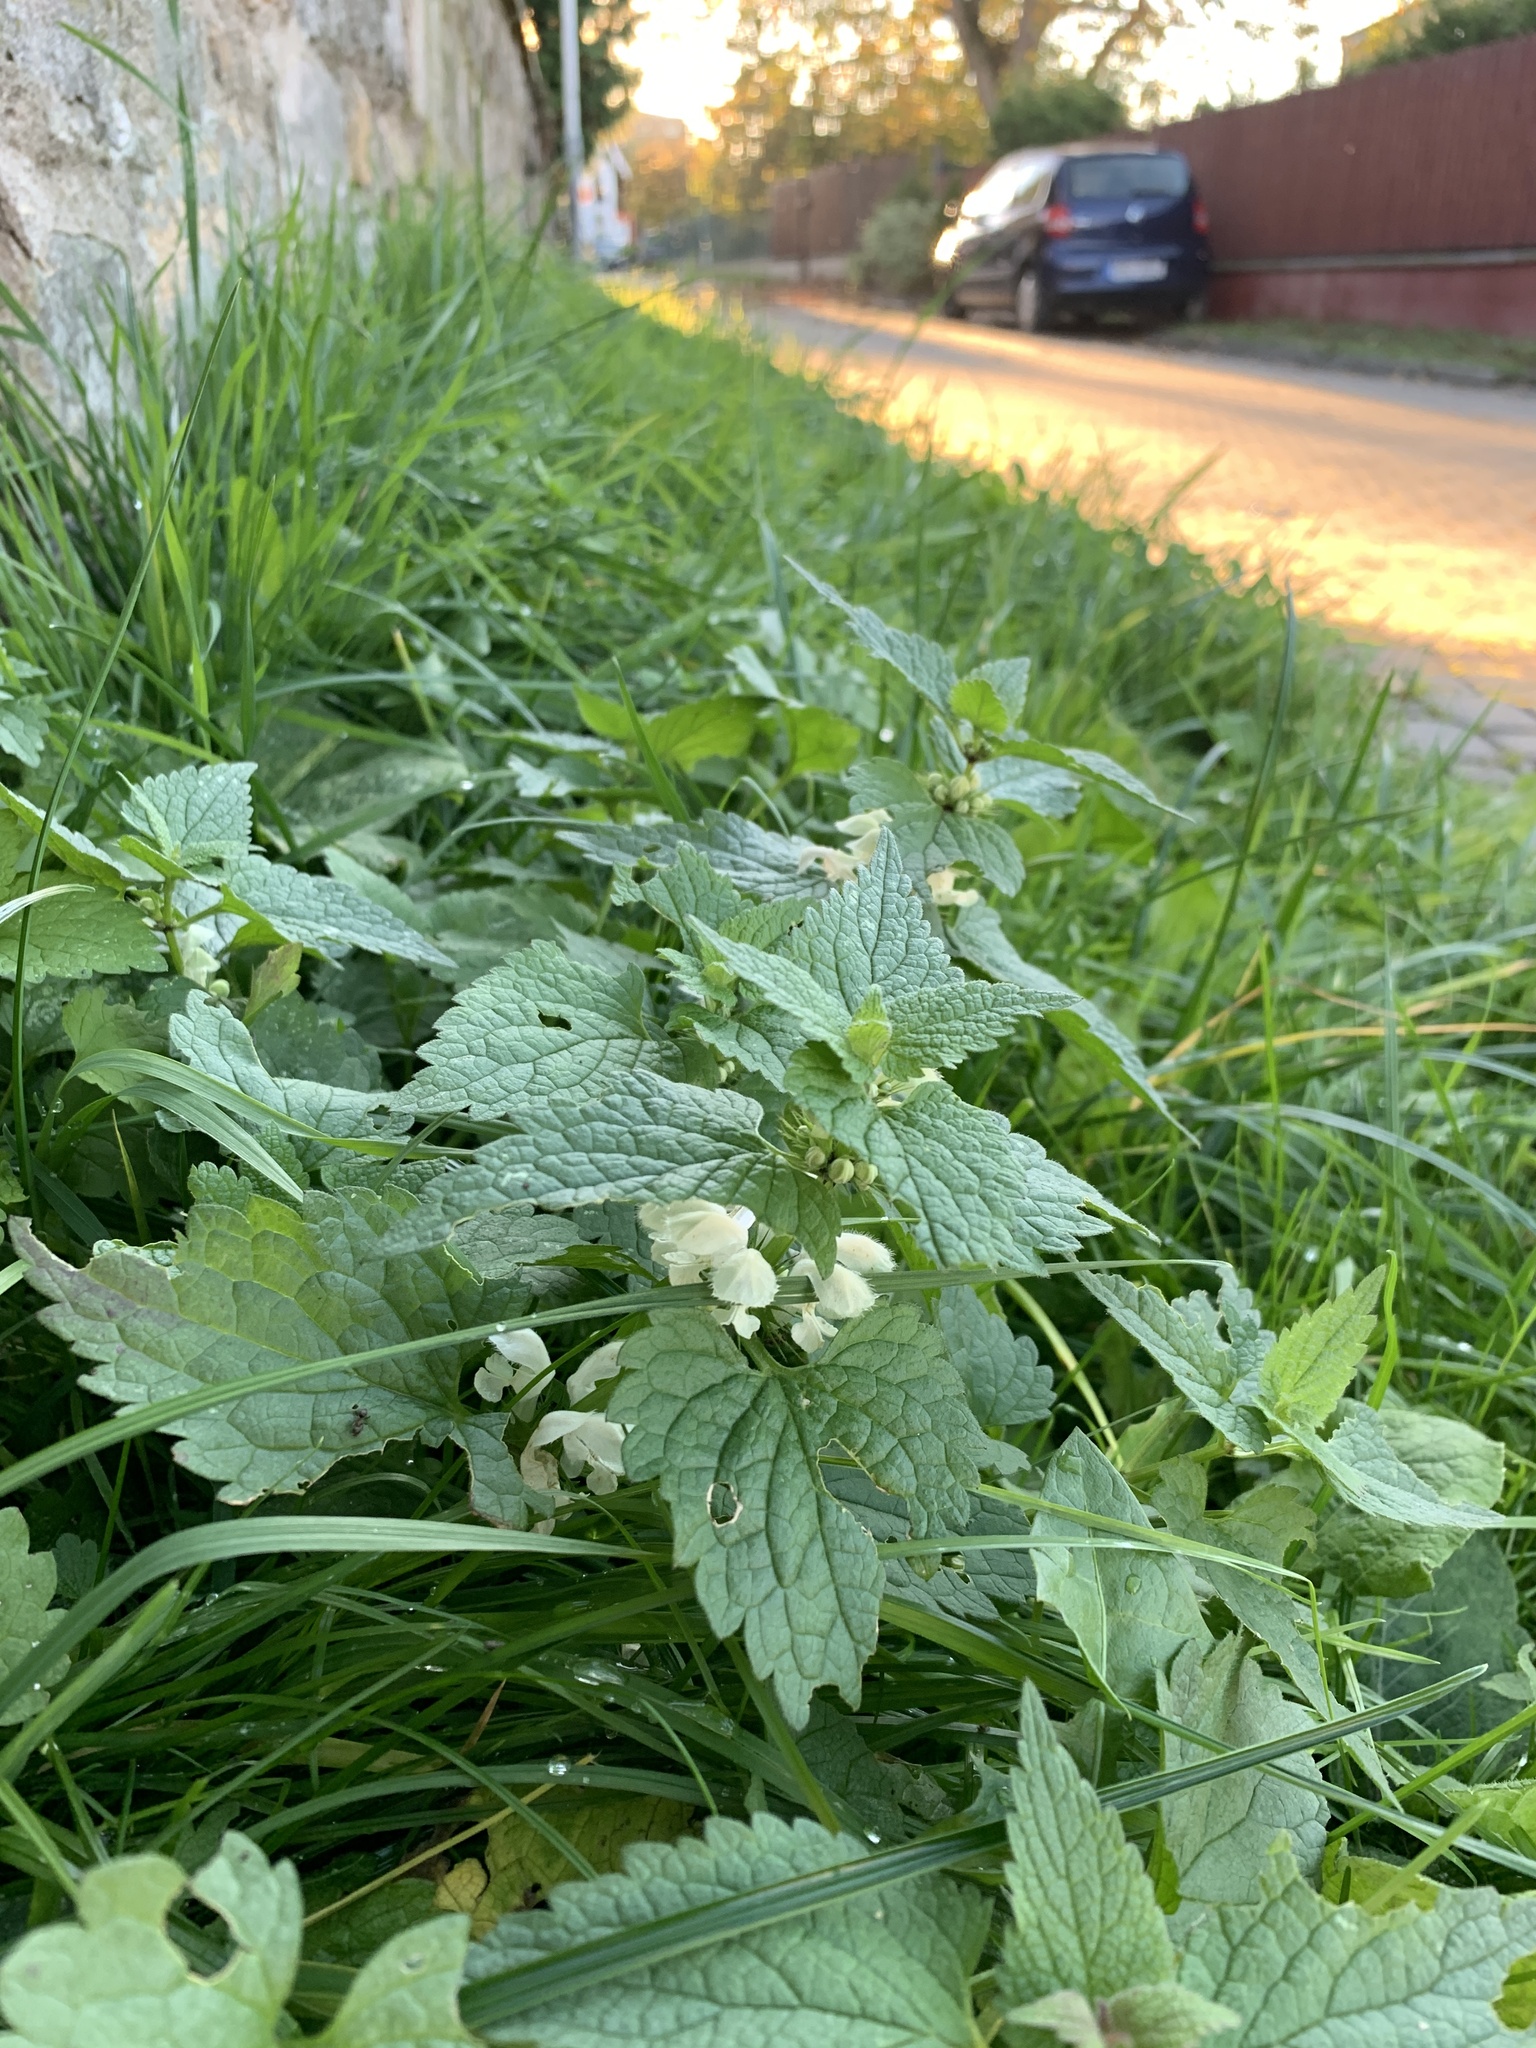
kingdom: Plantae
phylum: Tracheophyta
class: Magnoliopsida
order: Lamiales
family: Lamiaceae
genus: Lamium
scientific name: Lamium album
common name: White dead-nettle
